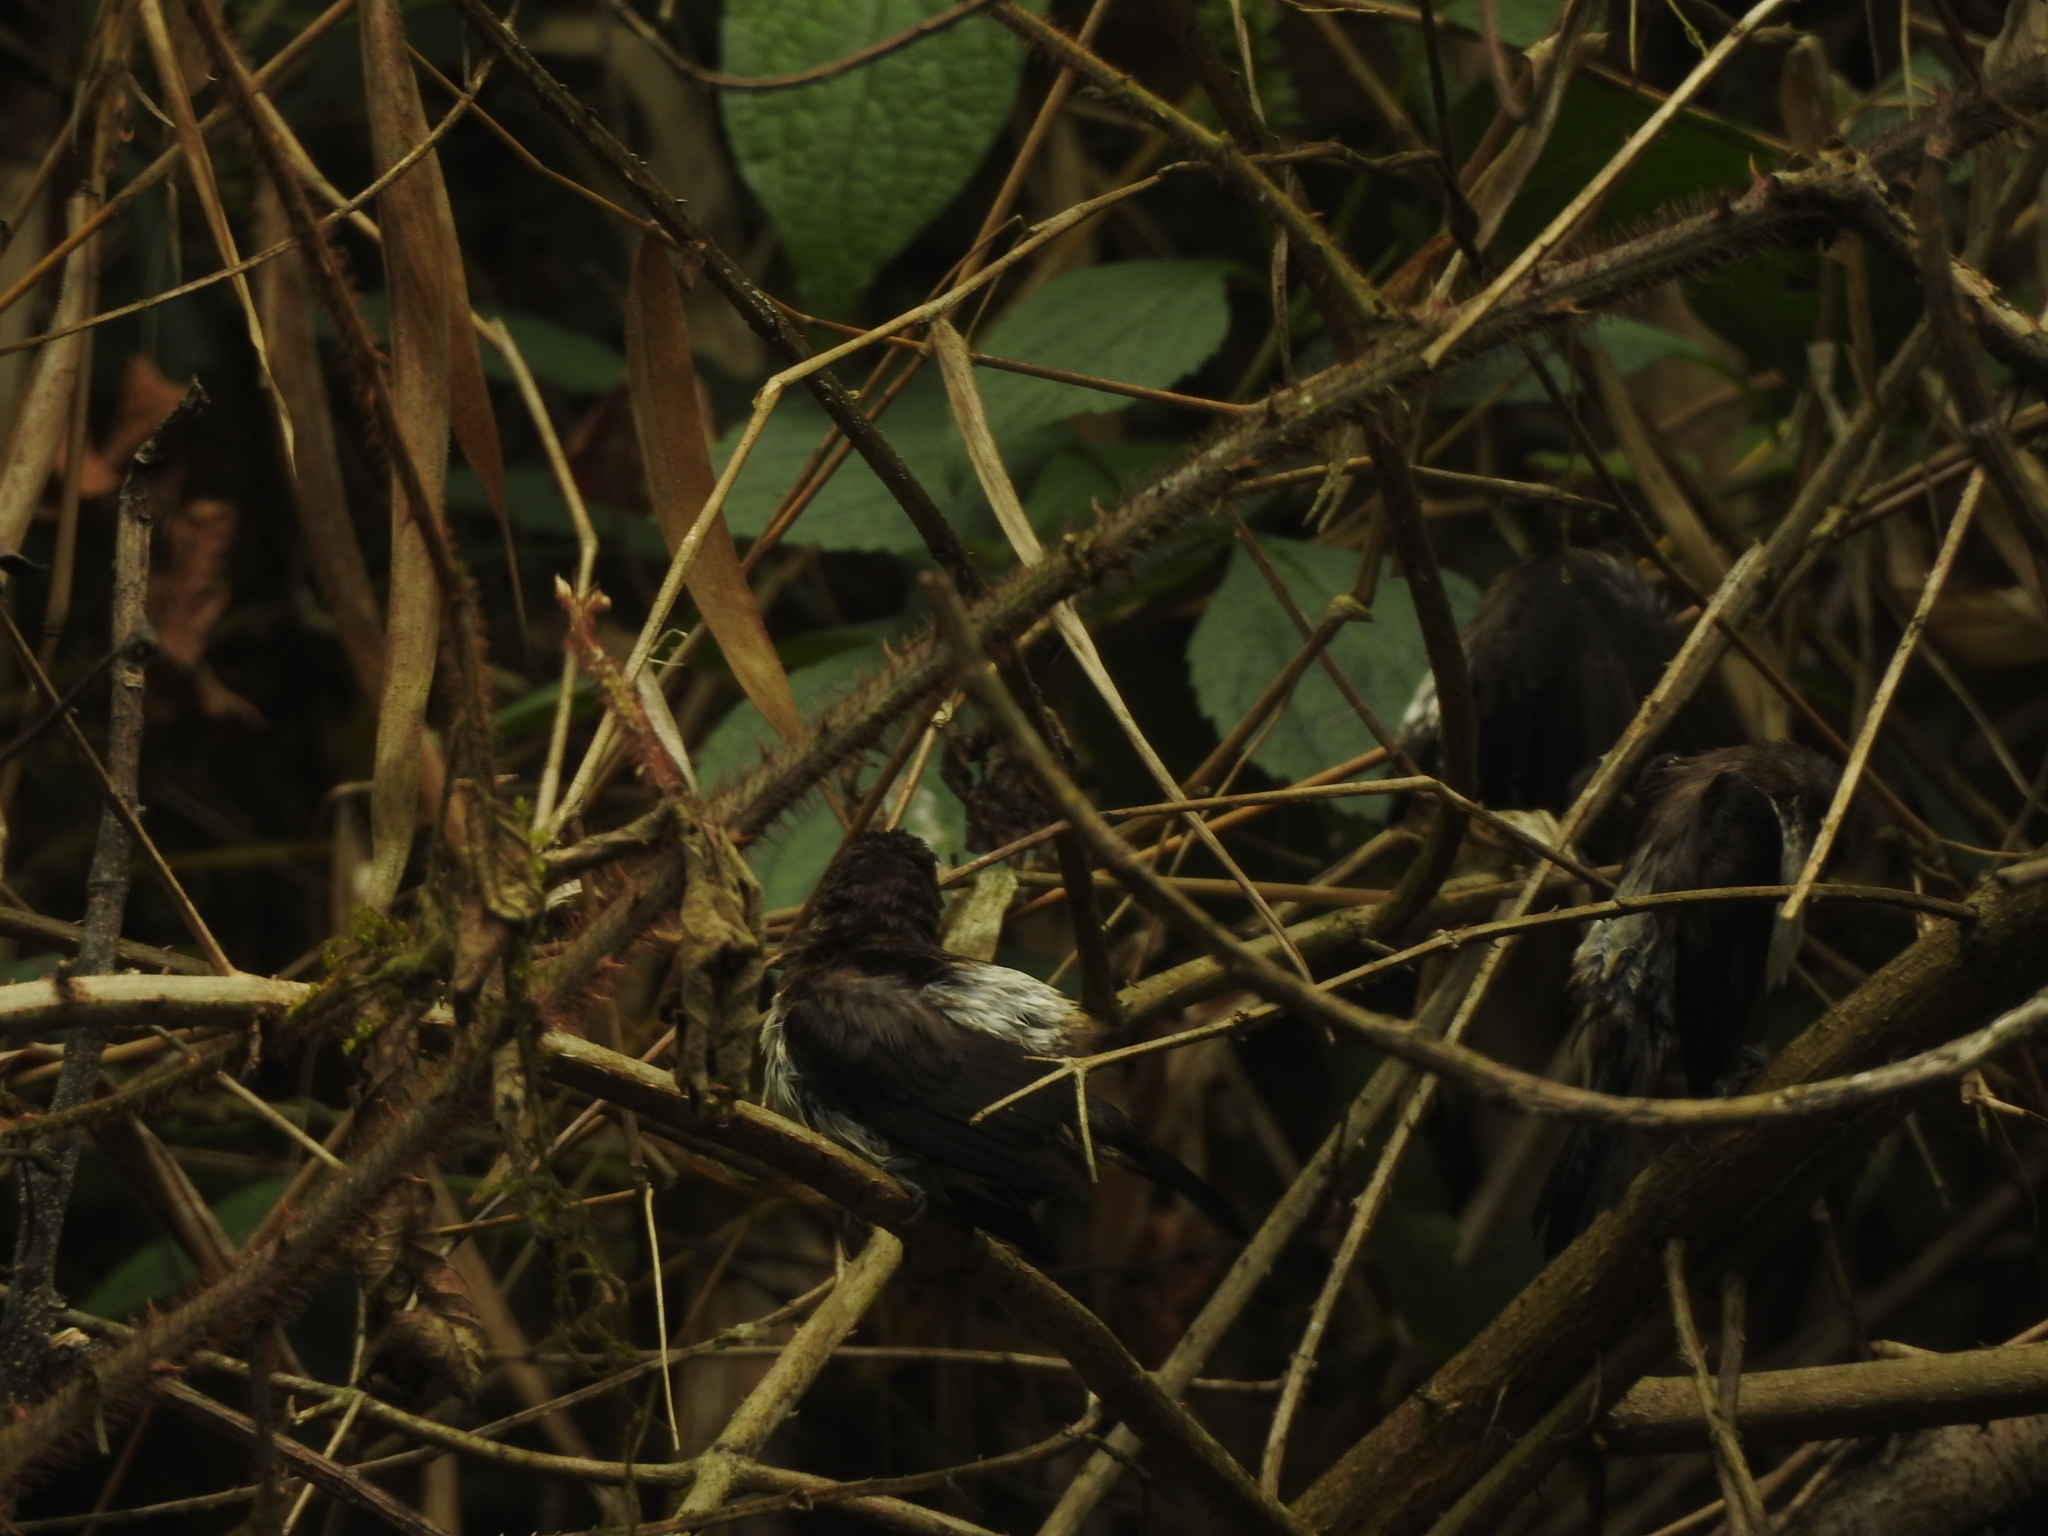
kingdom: Animalia
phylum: Chordata
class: Aves
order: Passeriformes
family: Estrildidae
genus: Lonchura
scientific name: Lonchura striata
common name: White-rumped munia
